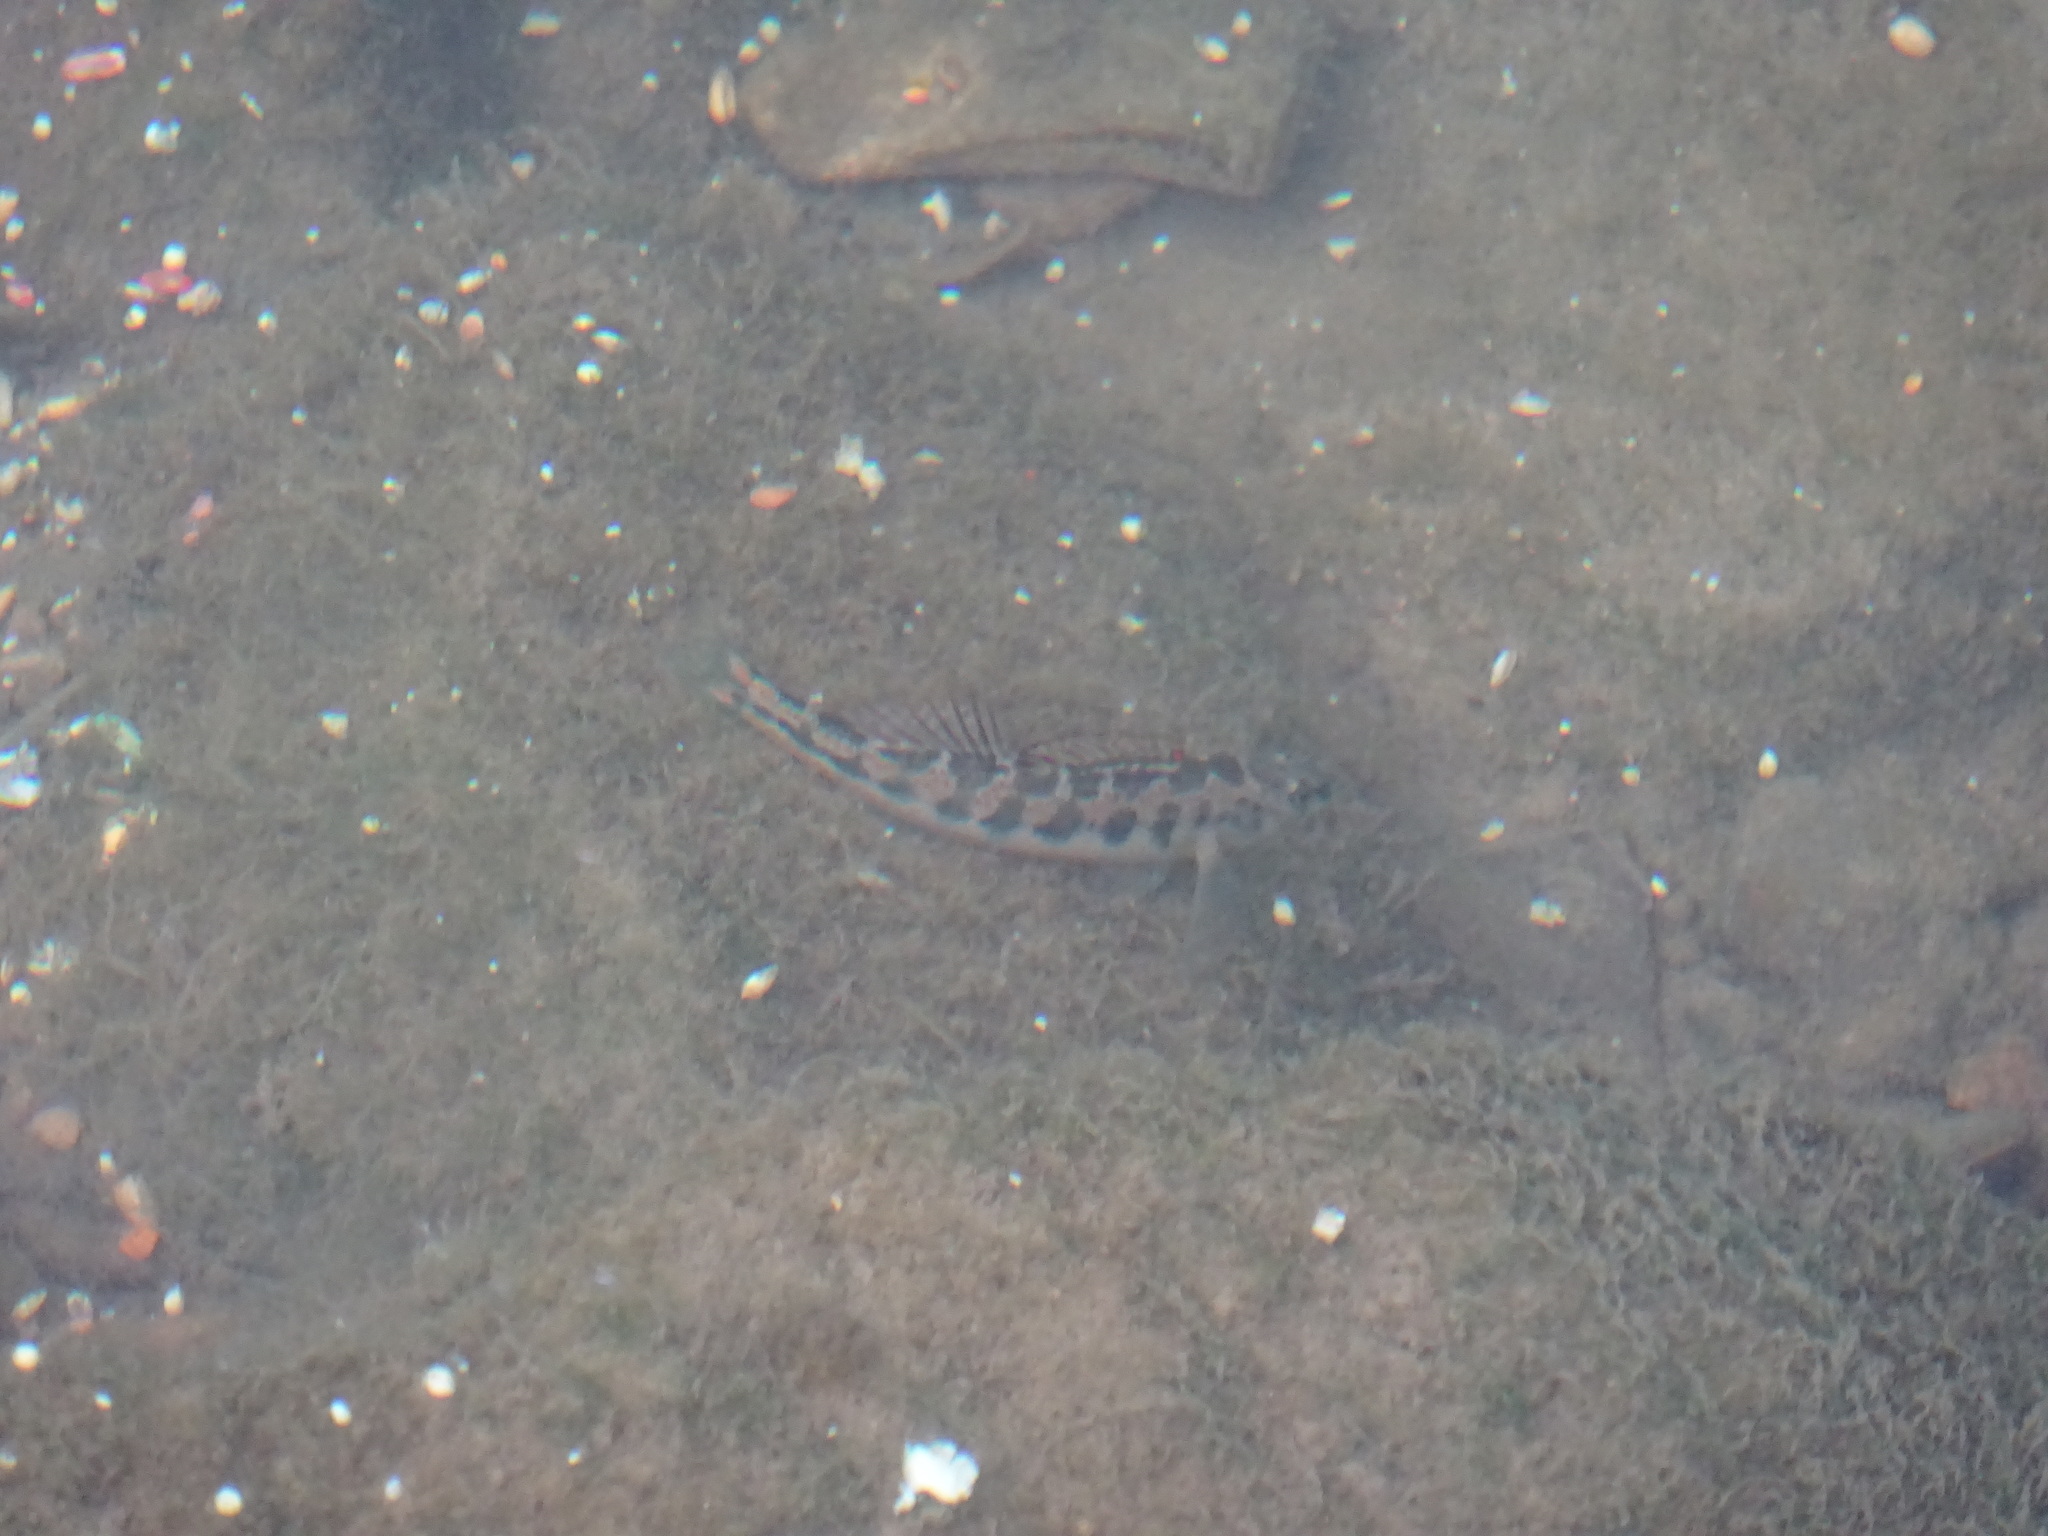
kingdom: Animalia
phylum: Chordata
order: Perciformes
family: Percidae
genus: Etheostoma
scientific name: Etheostoma simoterum
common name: Snubnose darter
